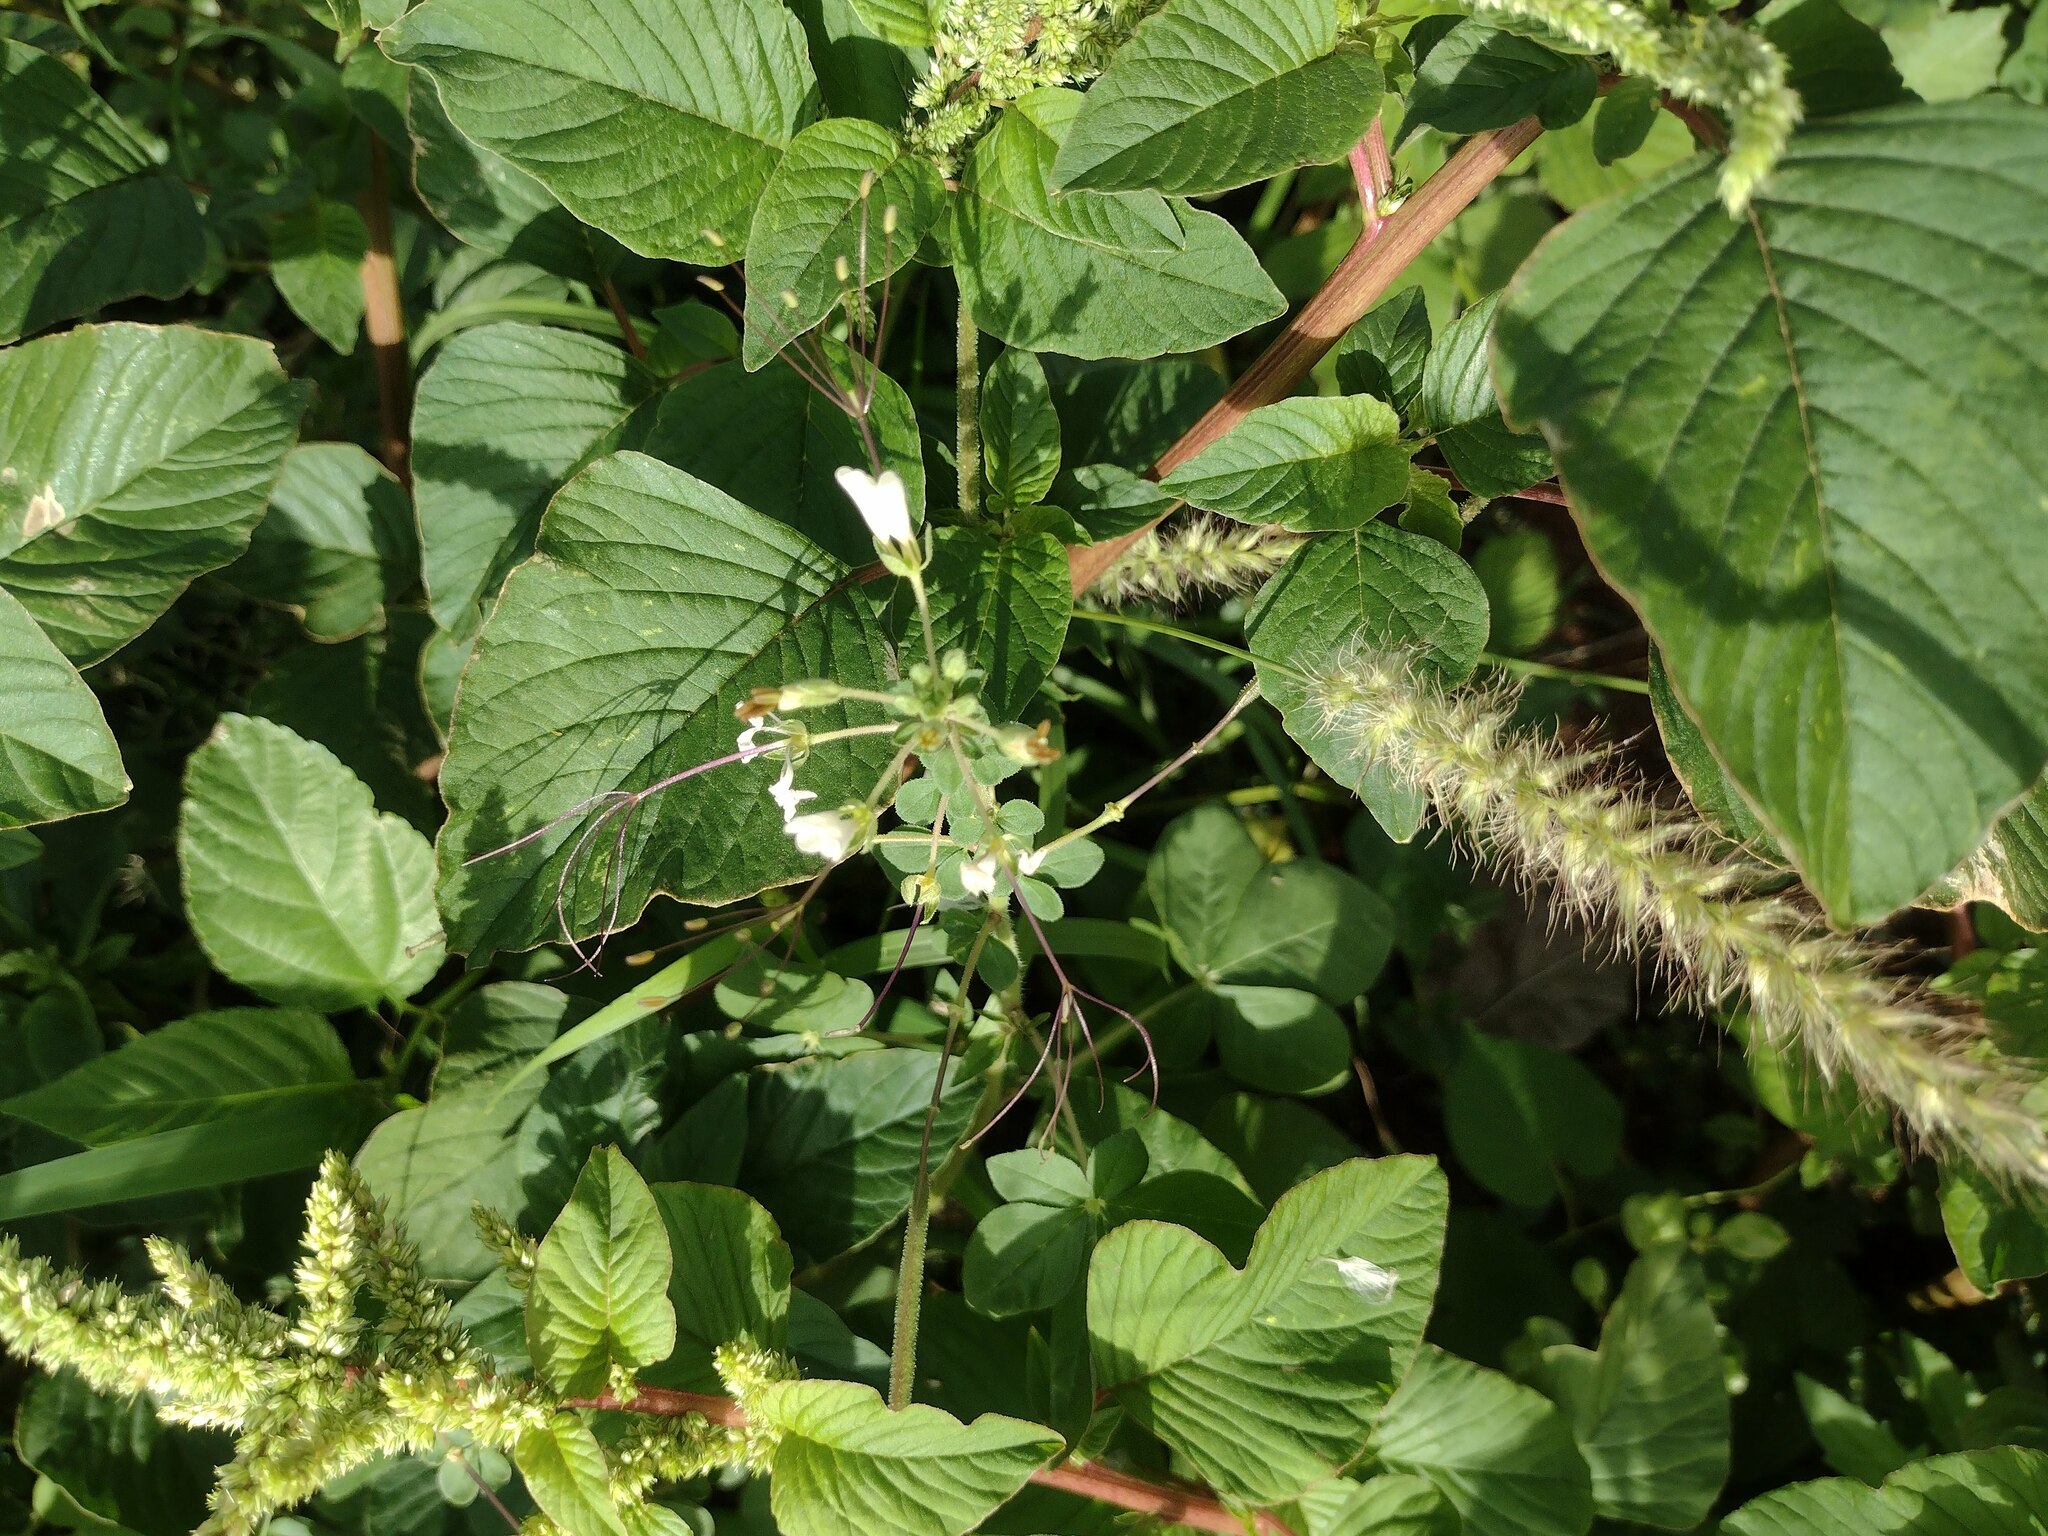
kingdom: Plantae
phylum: Tracheophyta
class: Magnoliopsida
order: Brassicales
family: Cleomaceae
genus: Gynandropsis
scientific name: Gynandropsis gynandra
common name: Spiderwisp
